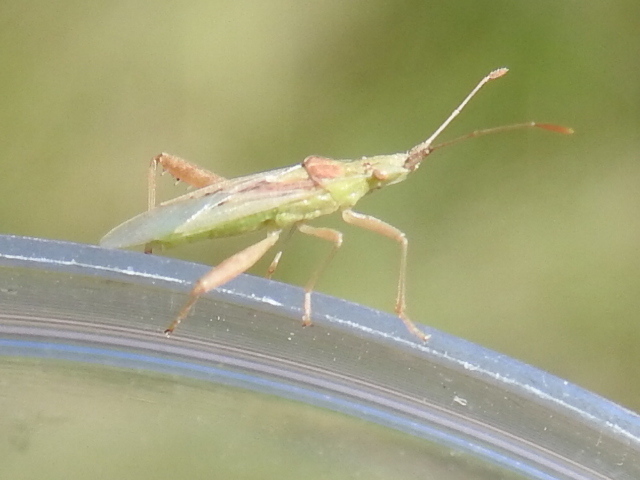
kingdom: Animalia
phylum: Arthropoda
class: Insecta
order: Hemiptera
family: Rhopalidae
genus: Harmostes
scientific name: Harmostes reflexulus
